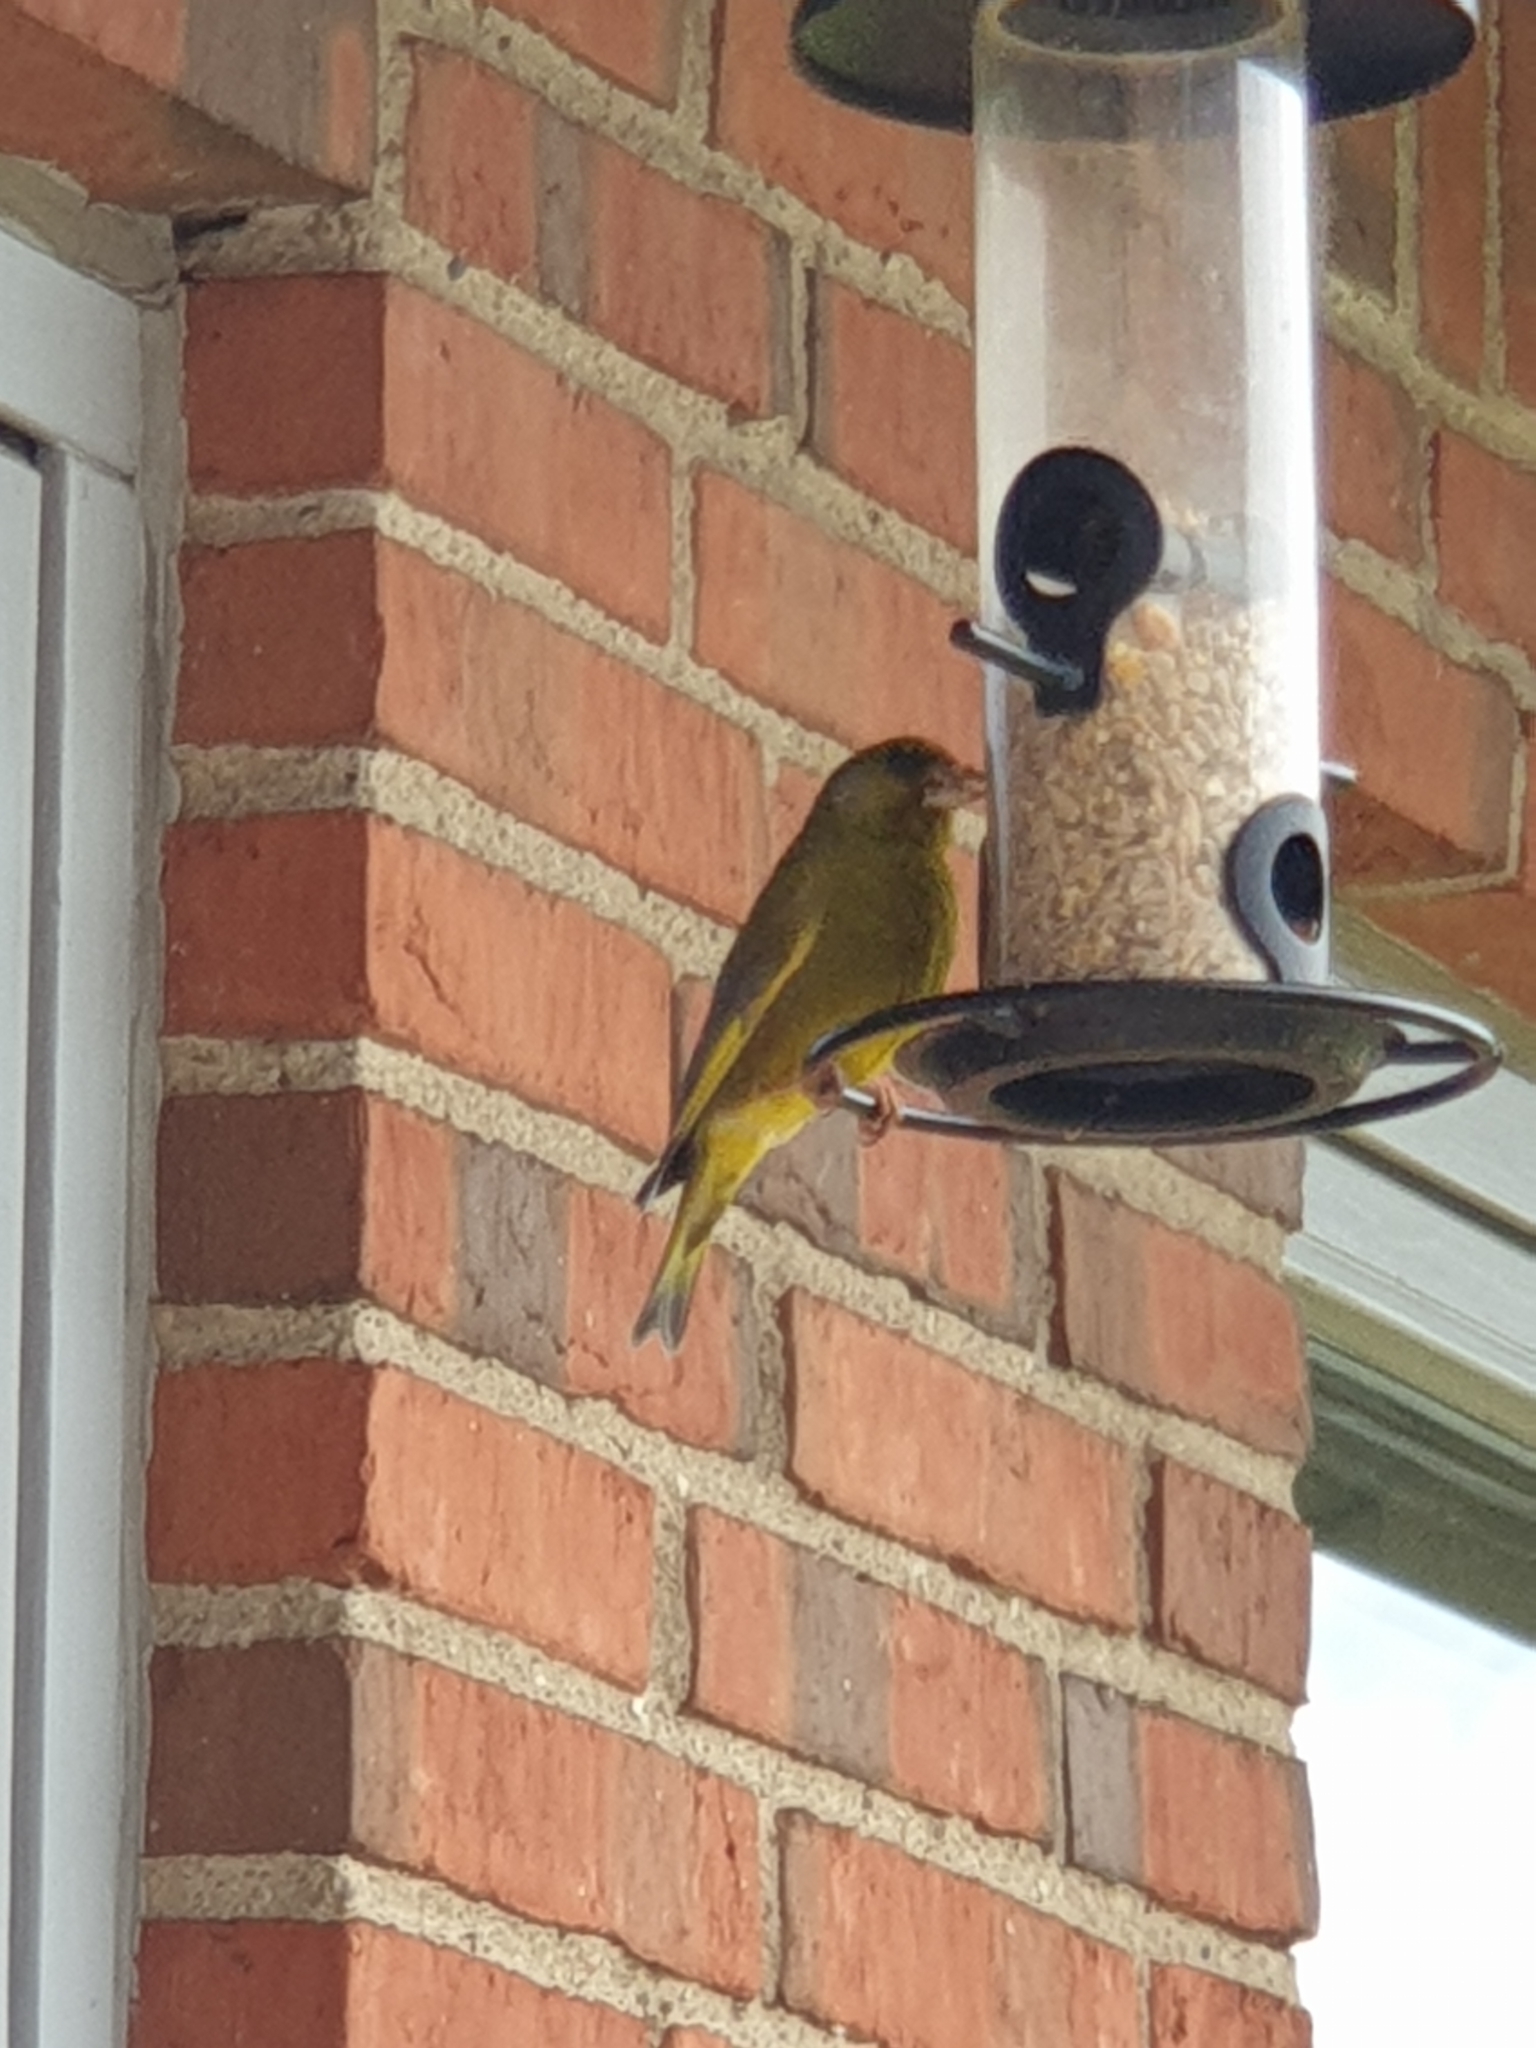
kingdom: Plantae
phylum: Tracheophyta
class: Liliopsida
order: Poales
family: Poaceae
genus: Chloris
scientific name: Chloris chloris
